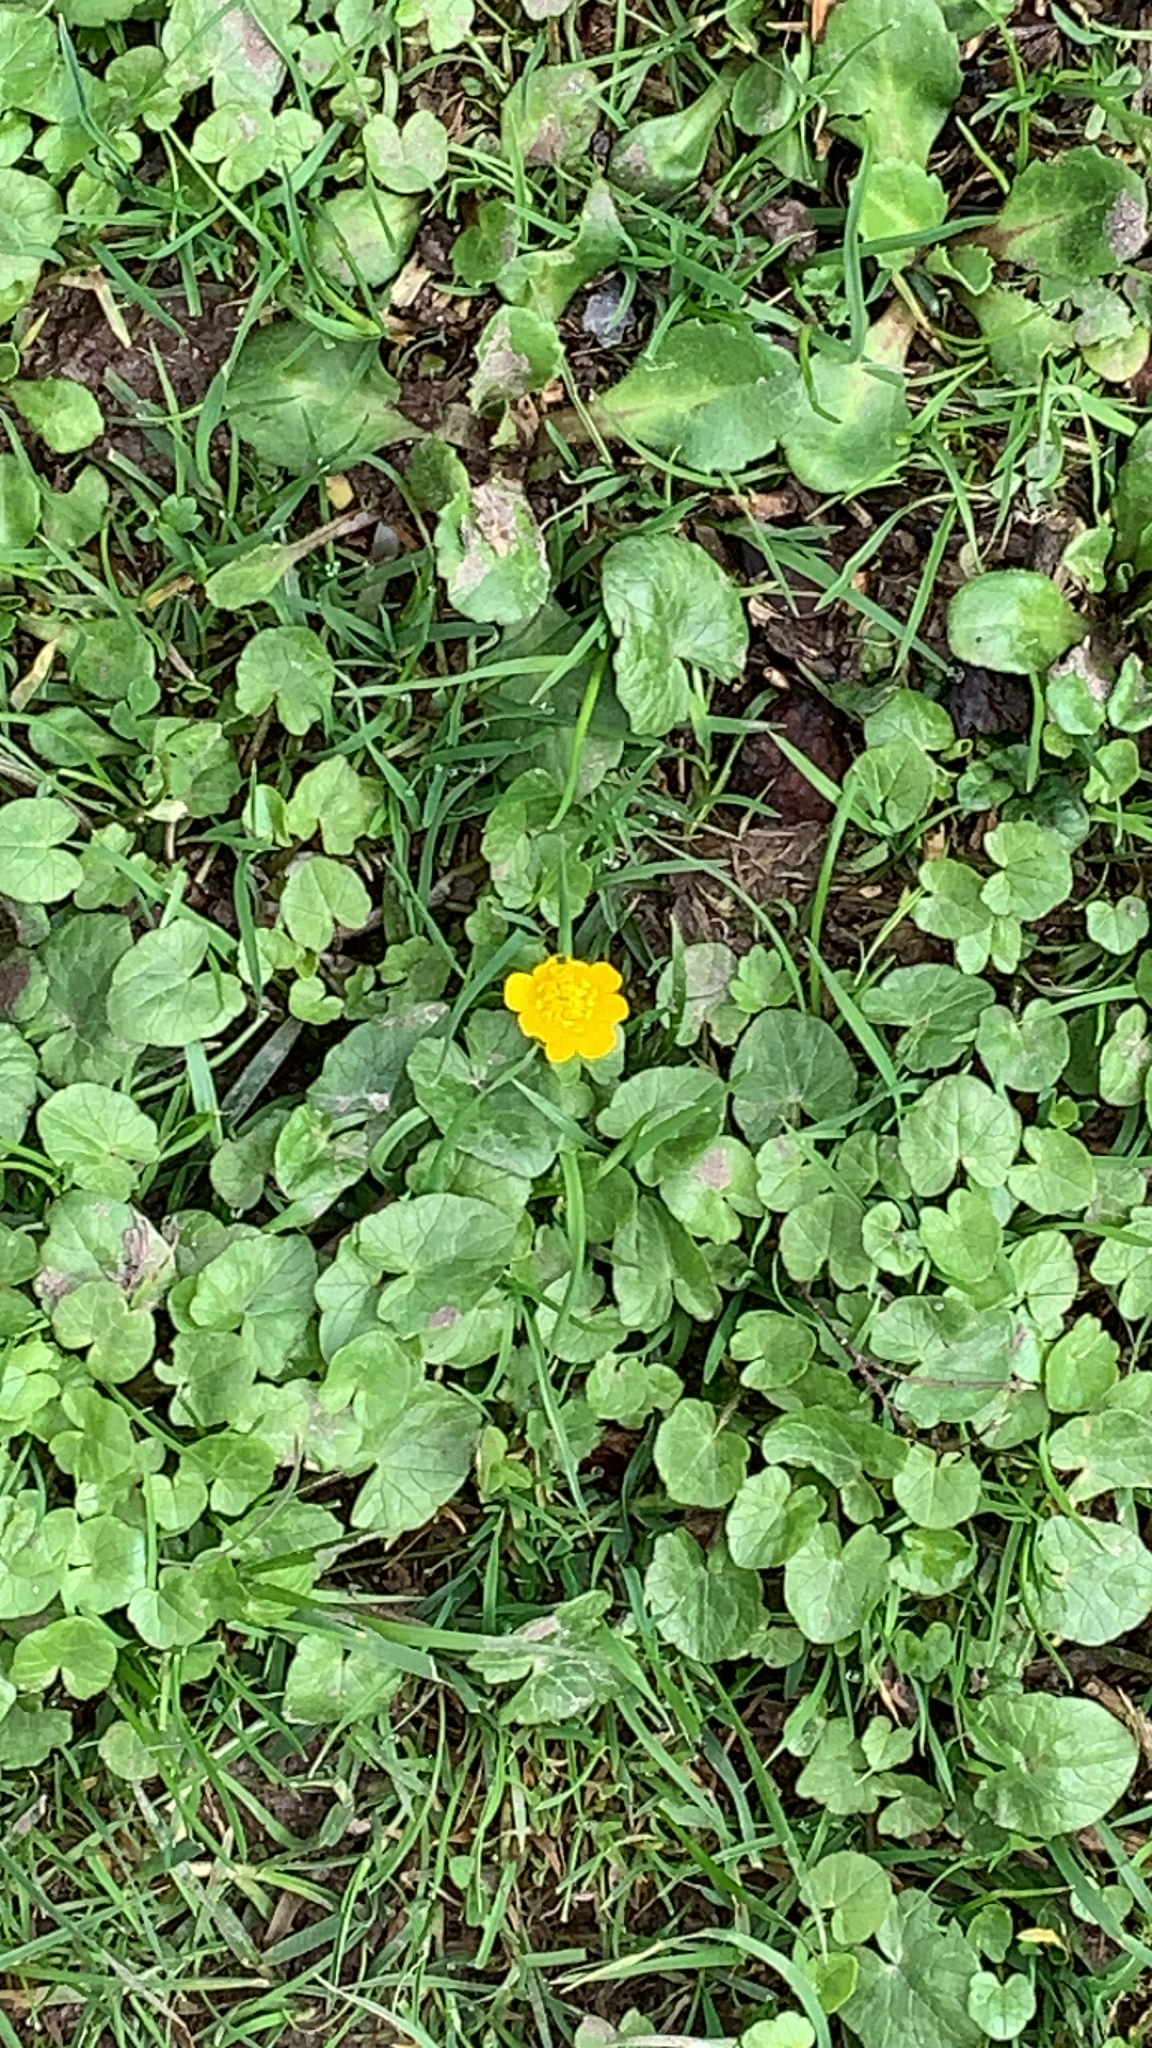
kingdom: Plantae
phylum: Tracheophyta
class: Magnoliopsida
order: Ranunculales
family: Ranunculaceae
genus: Ficaria
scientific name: Ficaria verna
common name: Lesser celandine
